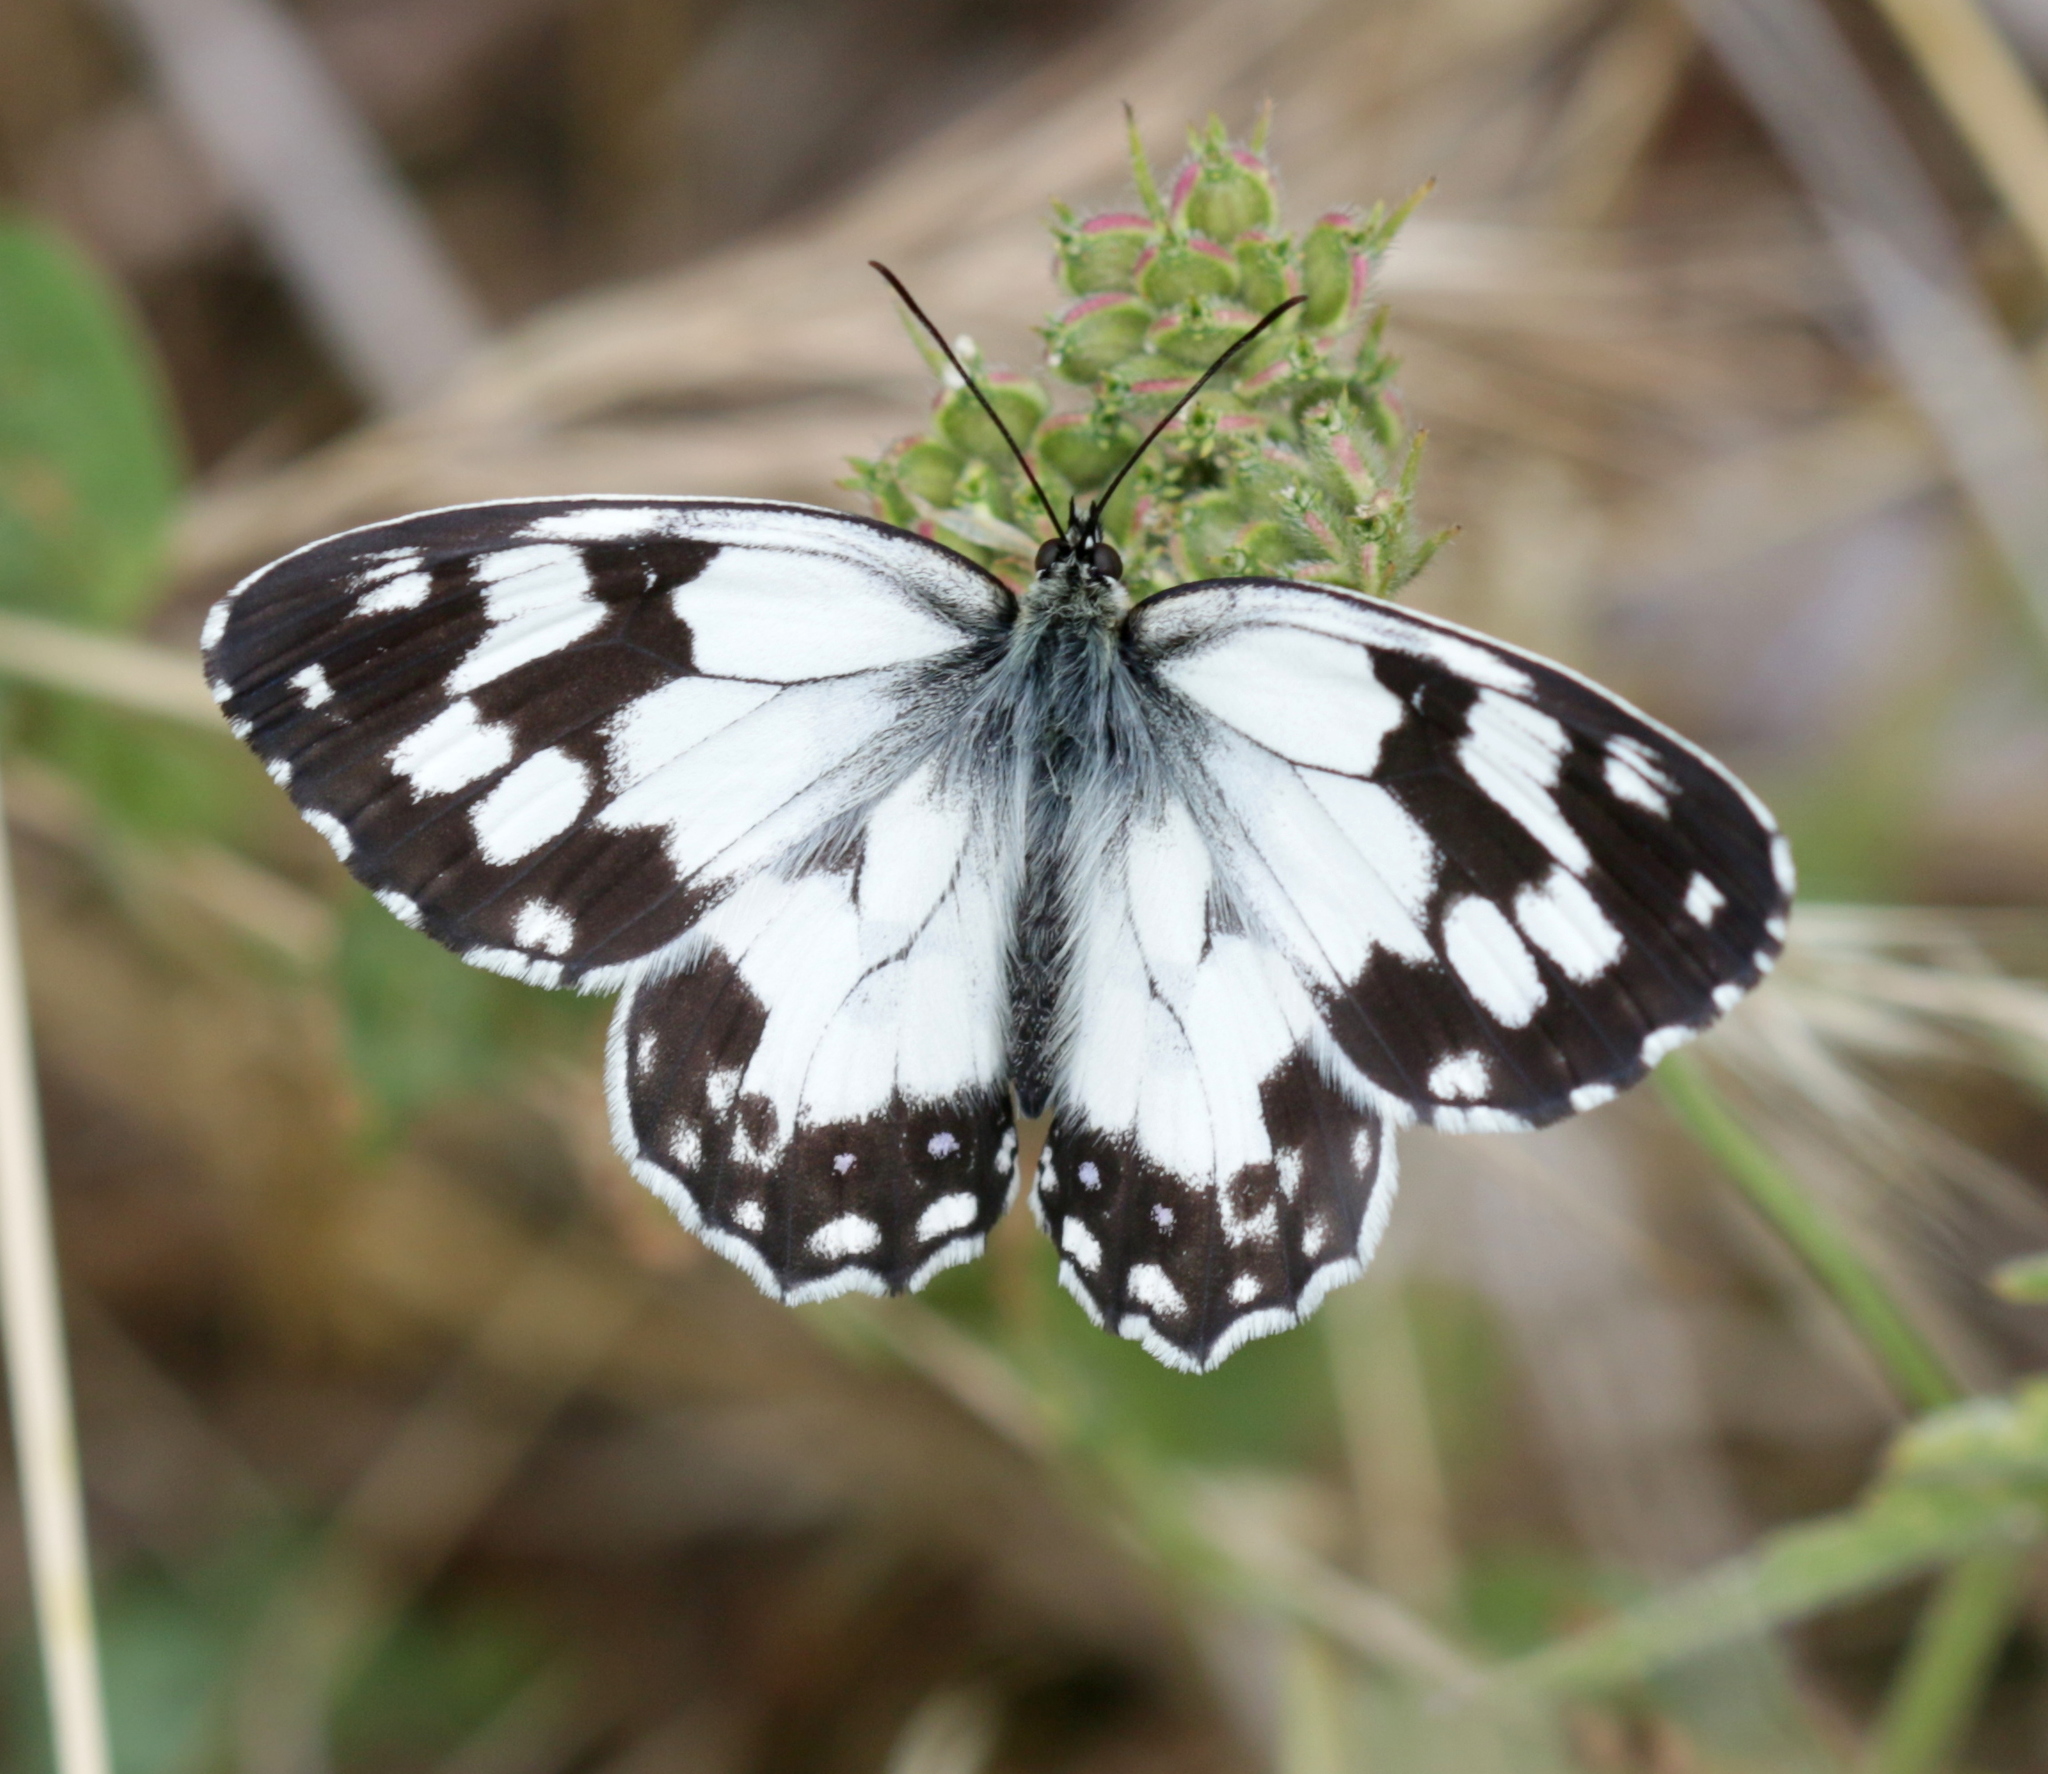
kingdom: Animalia
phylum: Arthropoda
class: Insecta
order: Lepidoptera
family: Nymphalidae
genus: Melanargia
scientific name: Melanargia lachesis
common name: Iberian marbled white
